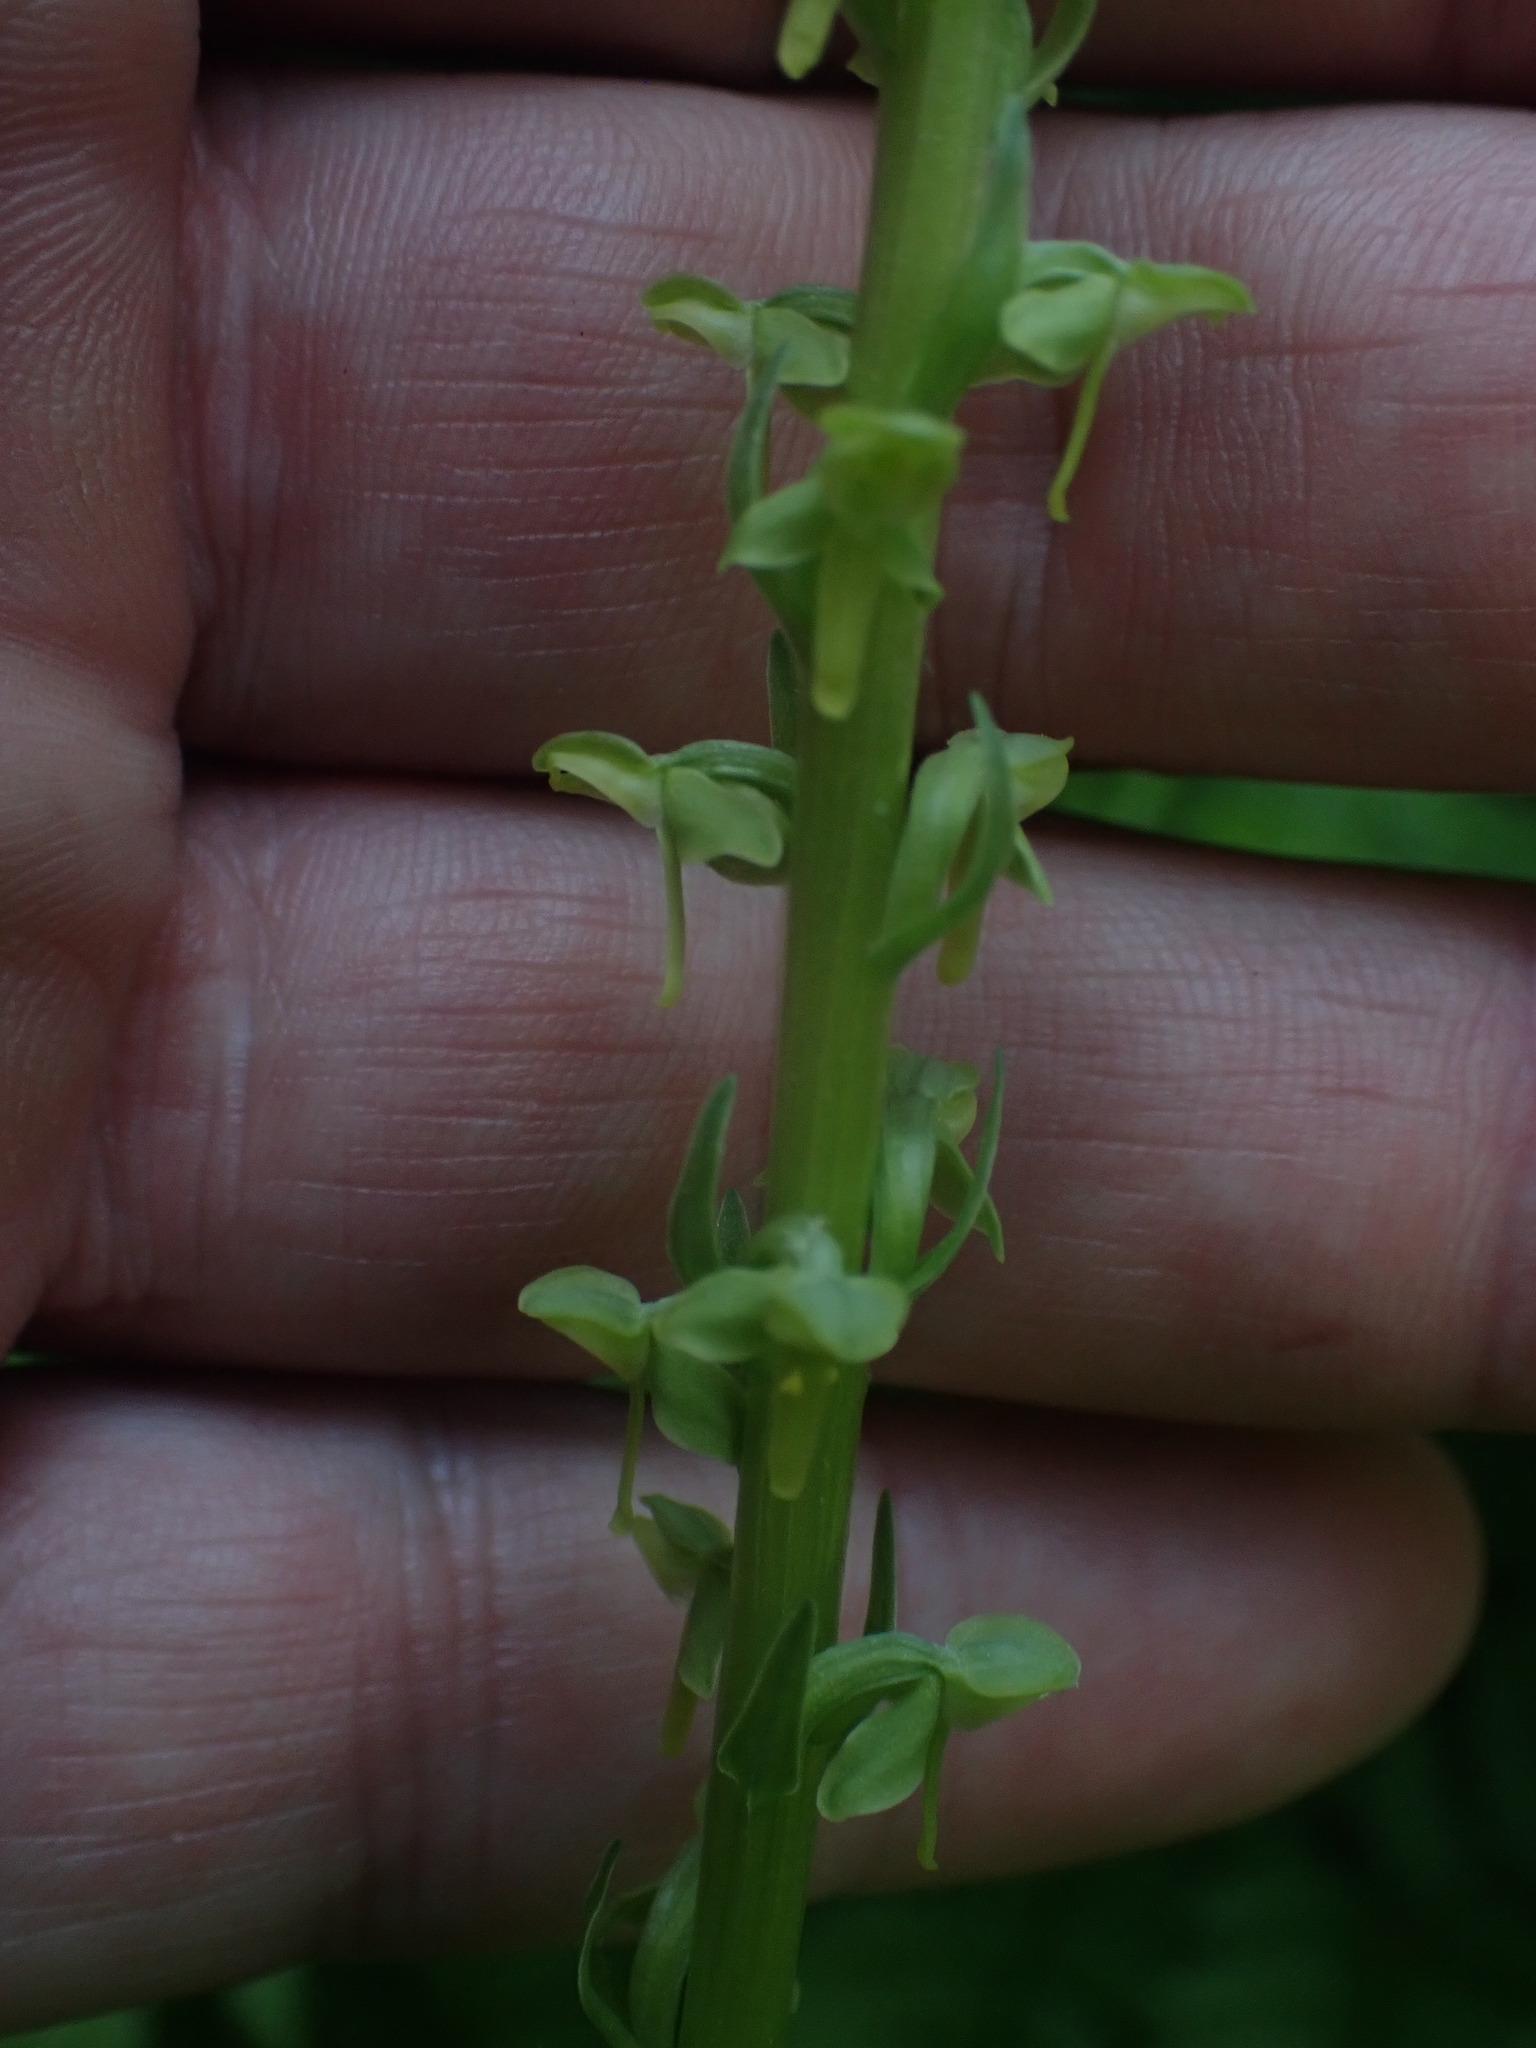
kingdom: Plantae
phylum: Tracheophyta
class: Liliopsida
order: Asparagales
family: Orchidaceae
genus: Platanthera
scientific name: Platanthera stricta
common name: Slender bog orchid
